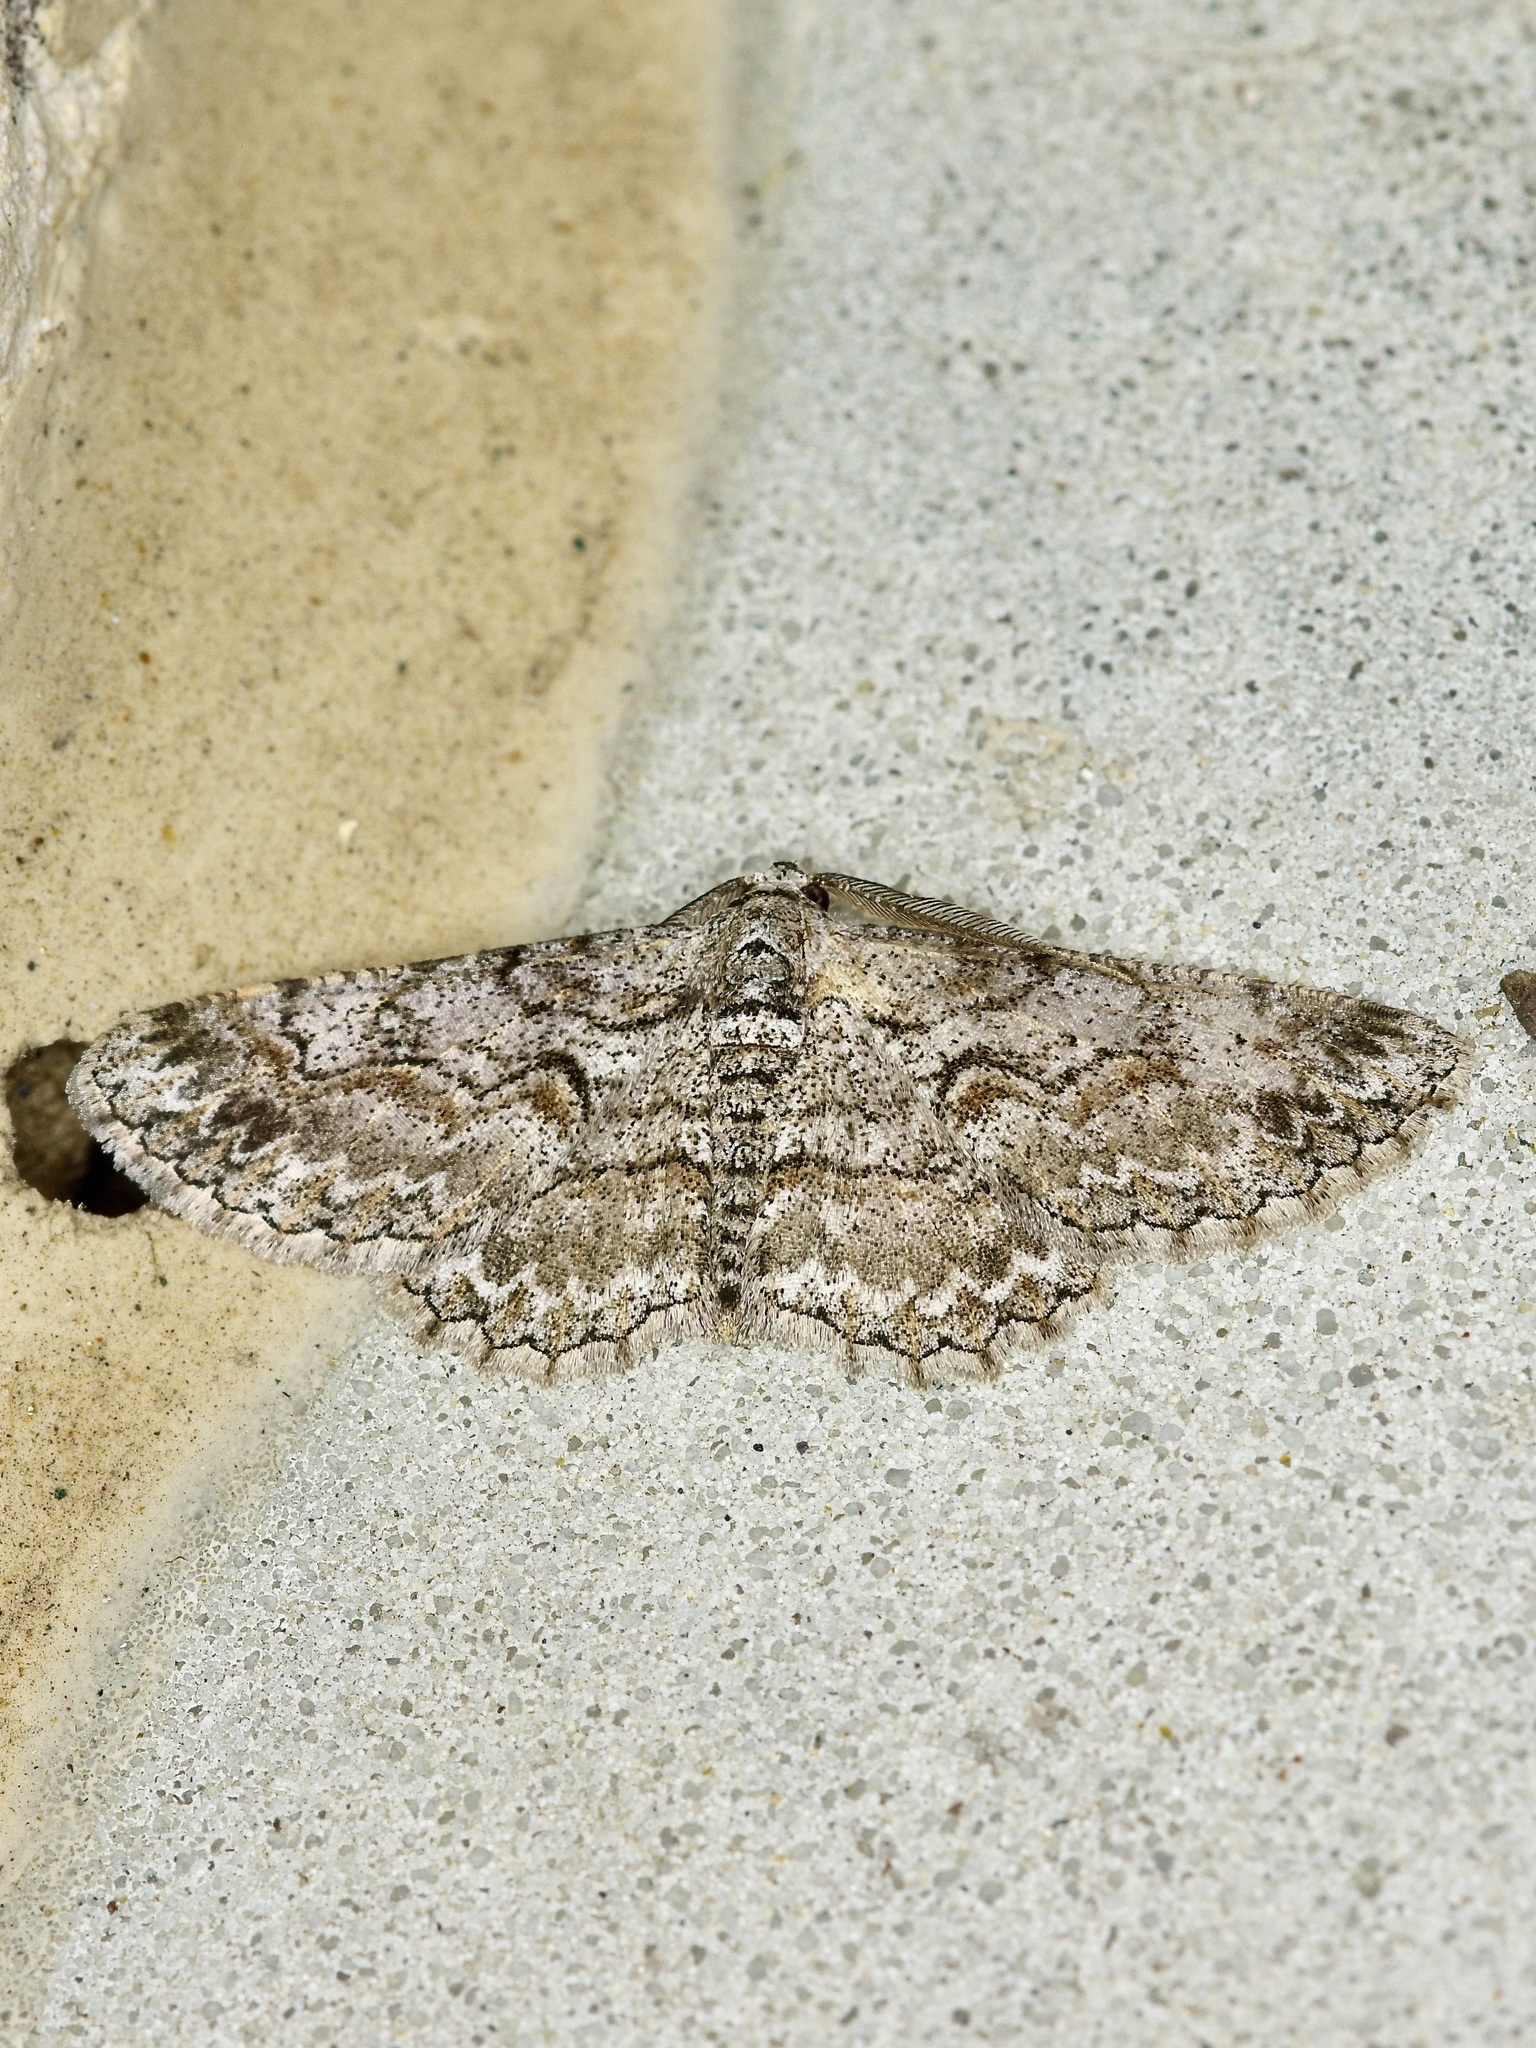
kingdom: Animalia
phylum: Arthropoda
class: Insecta
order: Lepidoptera
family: Geometridae
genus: Iridopsis
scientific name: Iridopsis defectaria
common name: Brown-shaded gray
